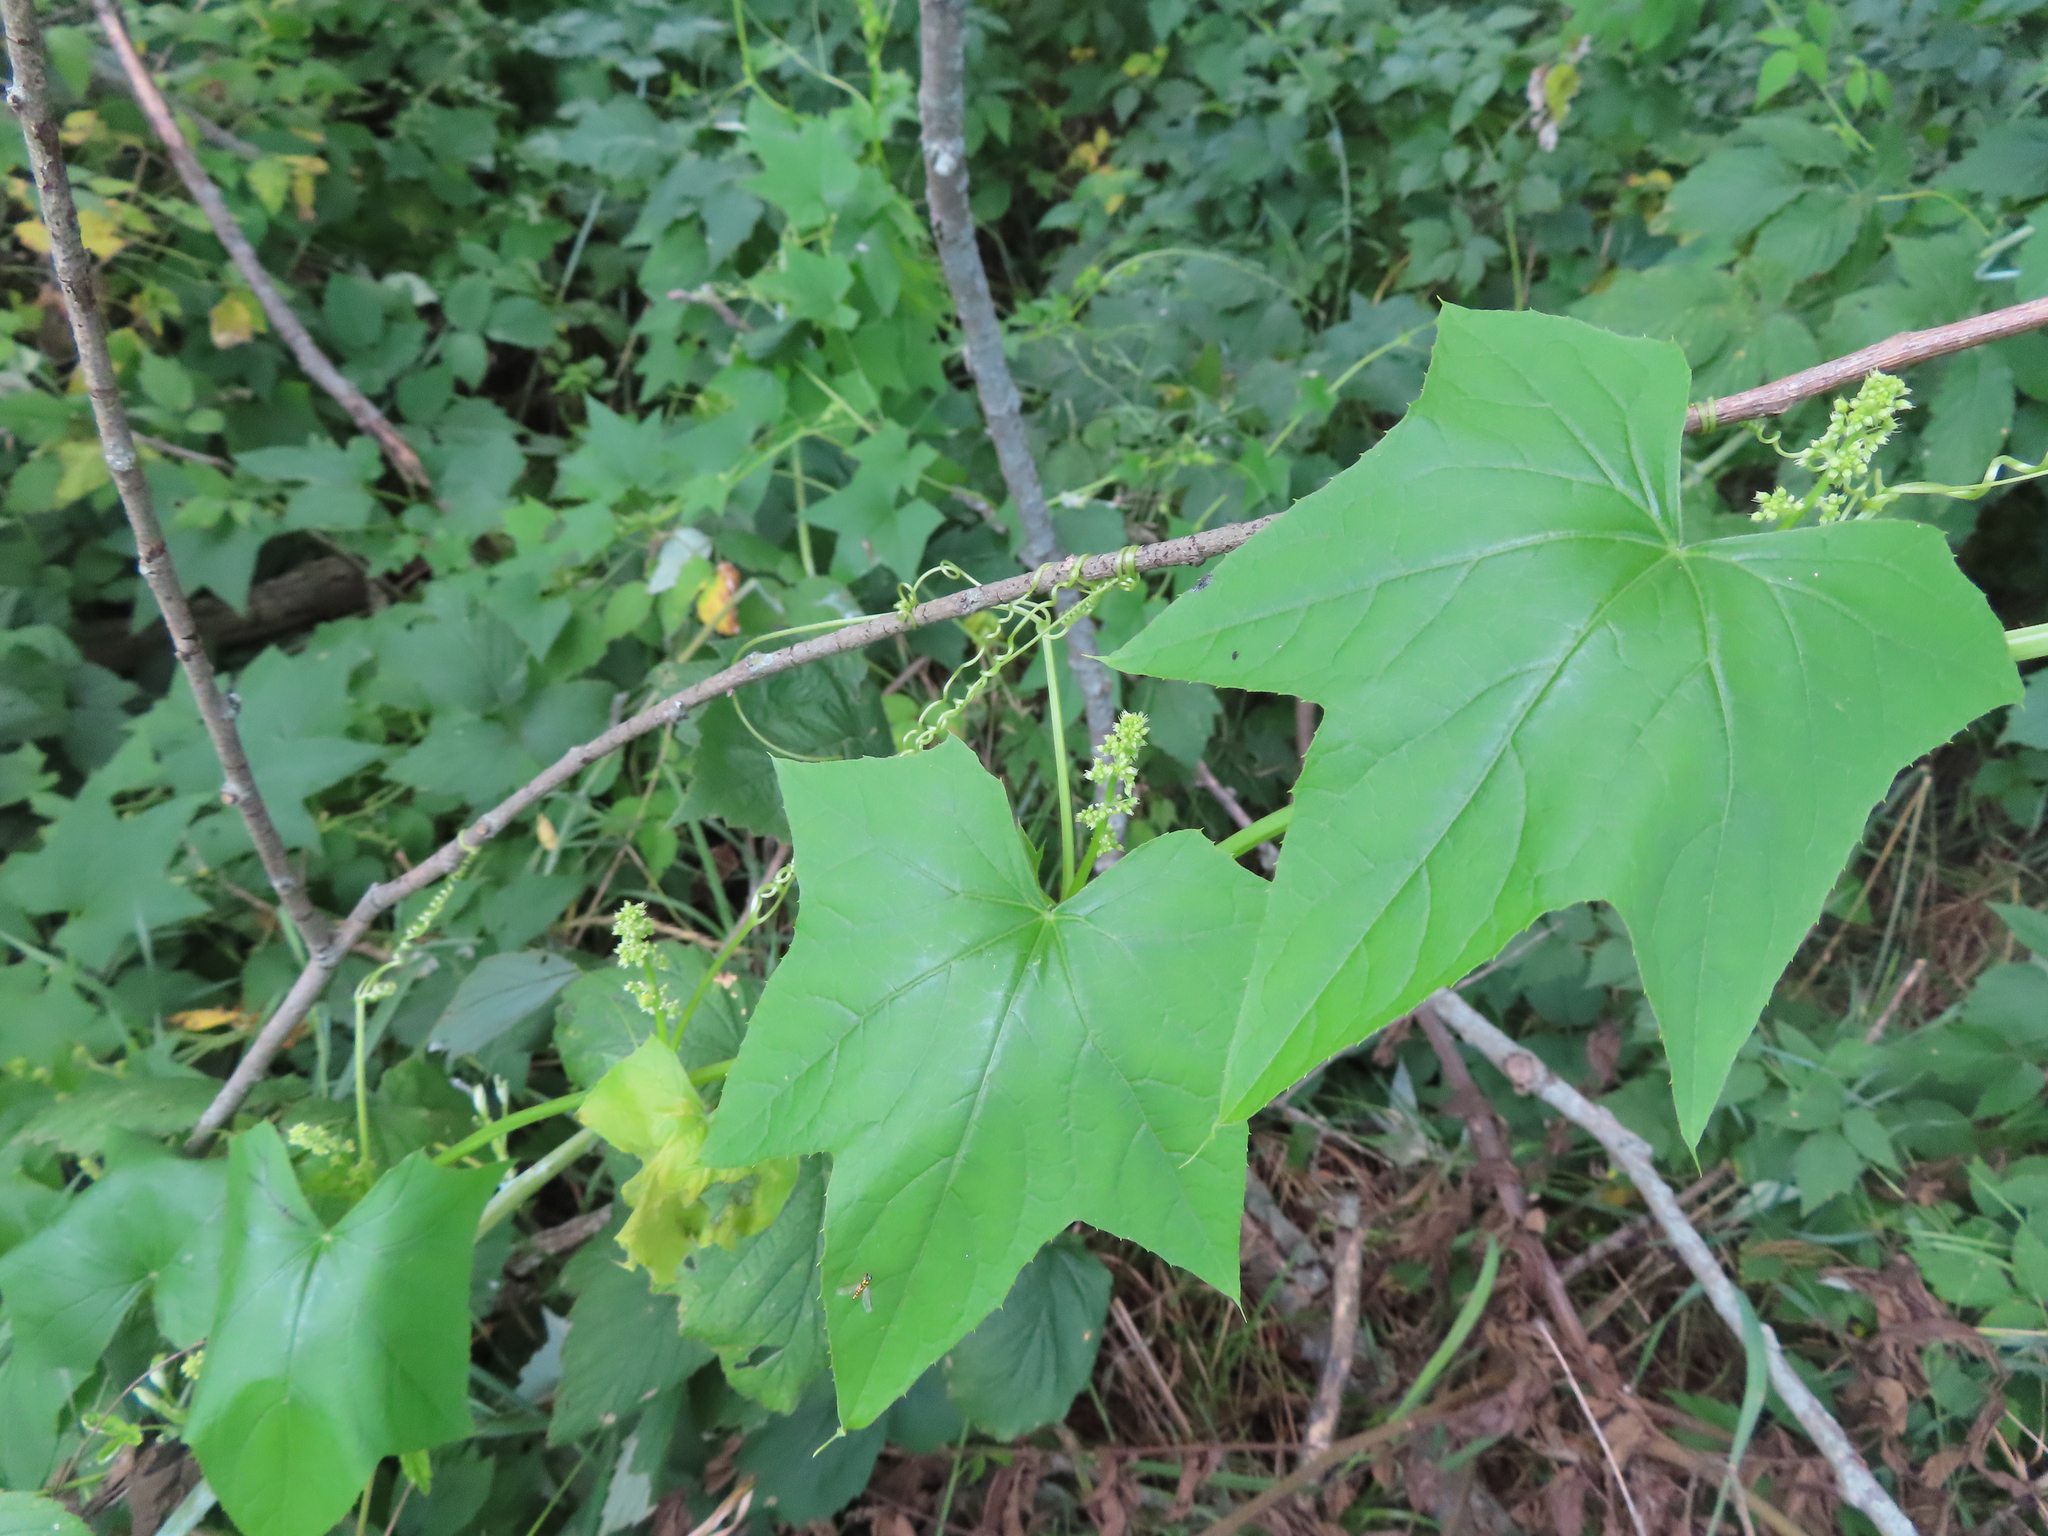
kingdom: Plantae
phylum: Tracheophyta
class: Magnoliopsida
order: Cucurbitales
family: Cucurbitaceae
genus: Echinocystis
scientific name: Echinocystis lobata
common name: Wild cucumber
